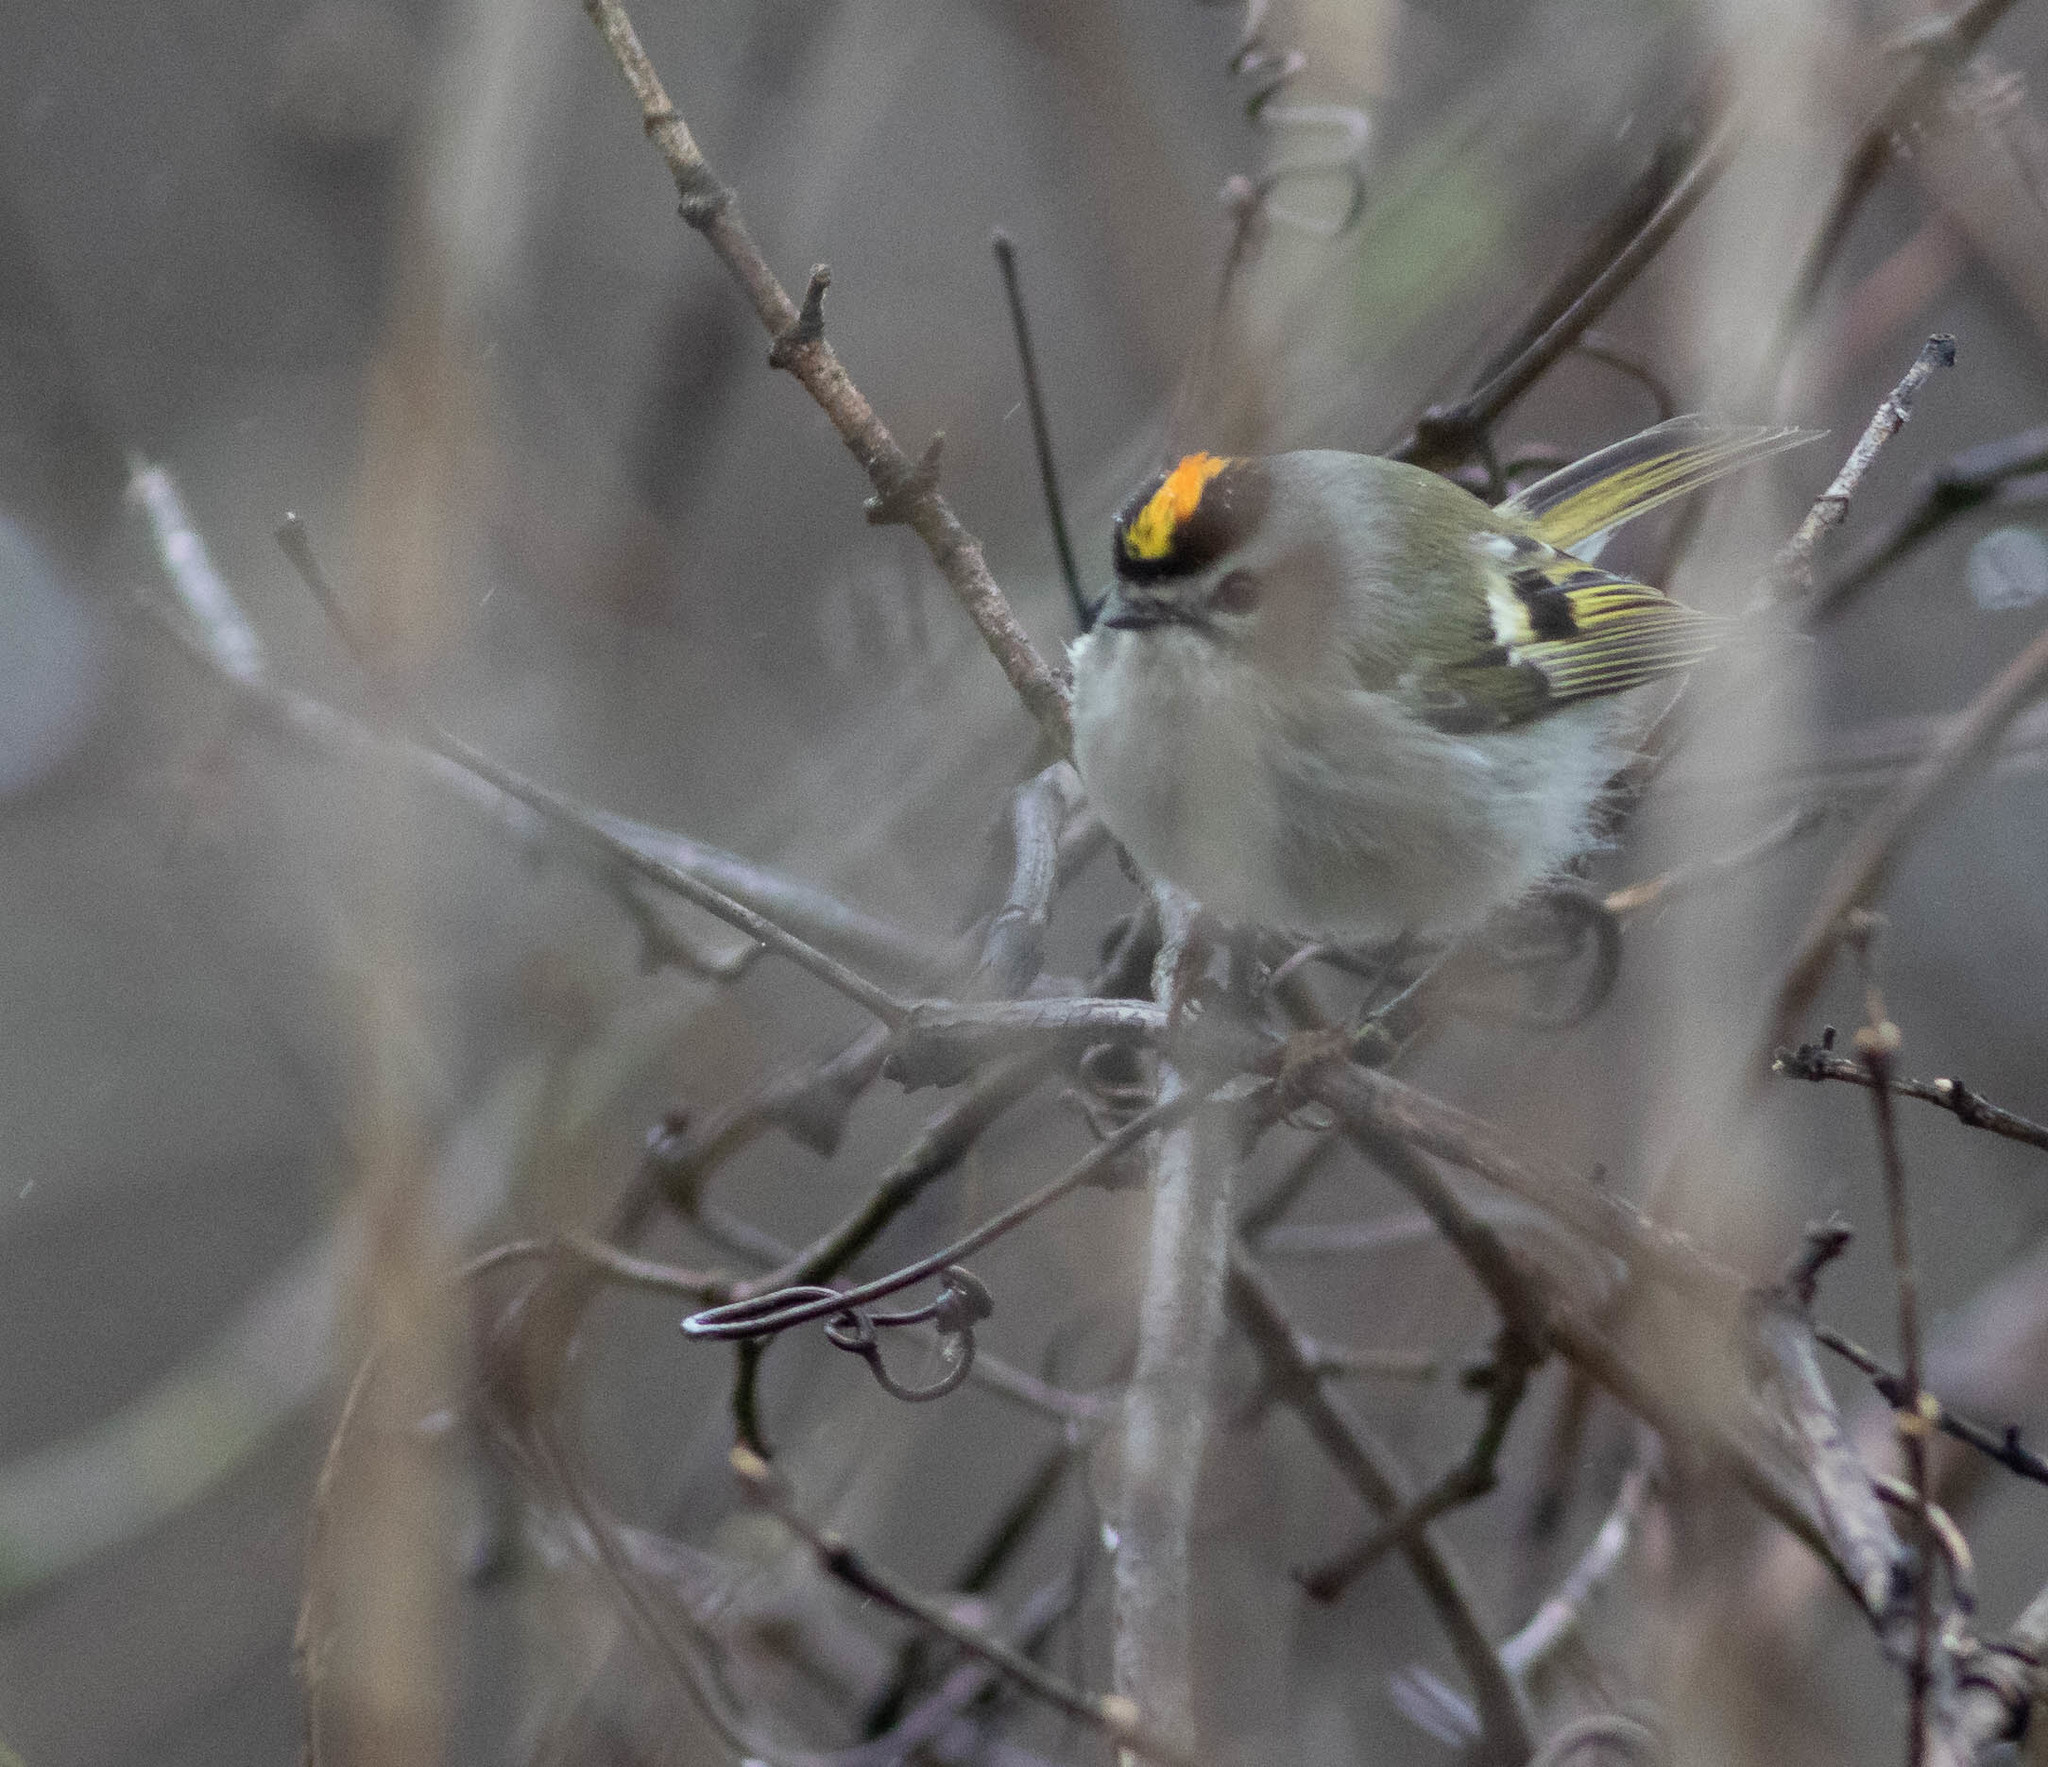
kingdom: Animalia
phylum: Chordata
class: Aves
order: Passeriformes
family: Regulidae
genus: Regulus
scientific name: Regulus satrapa
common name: Golden-crowned kinglet
